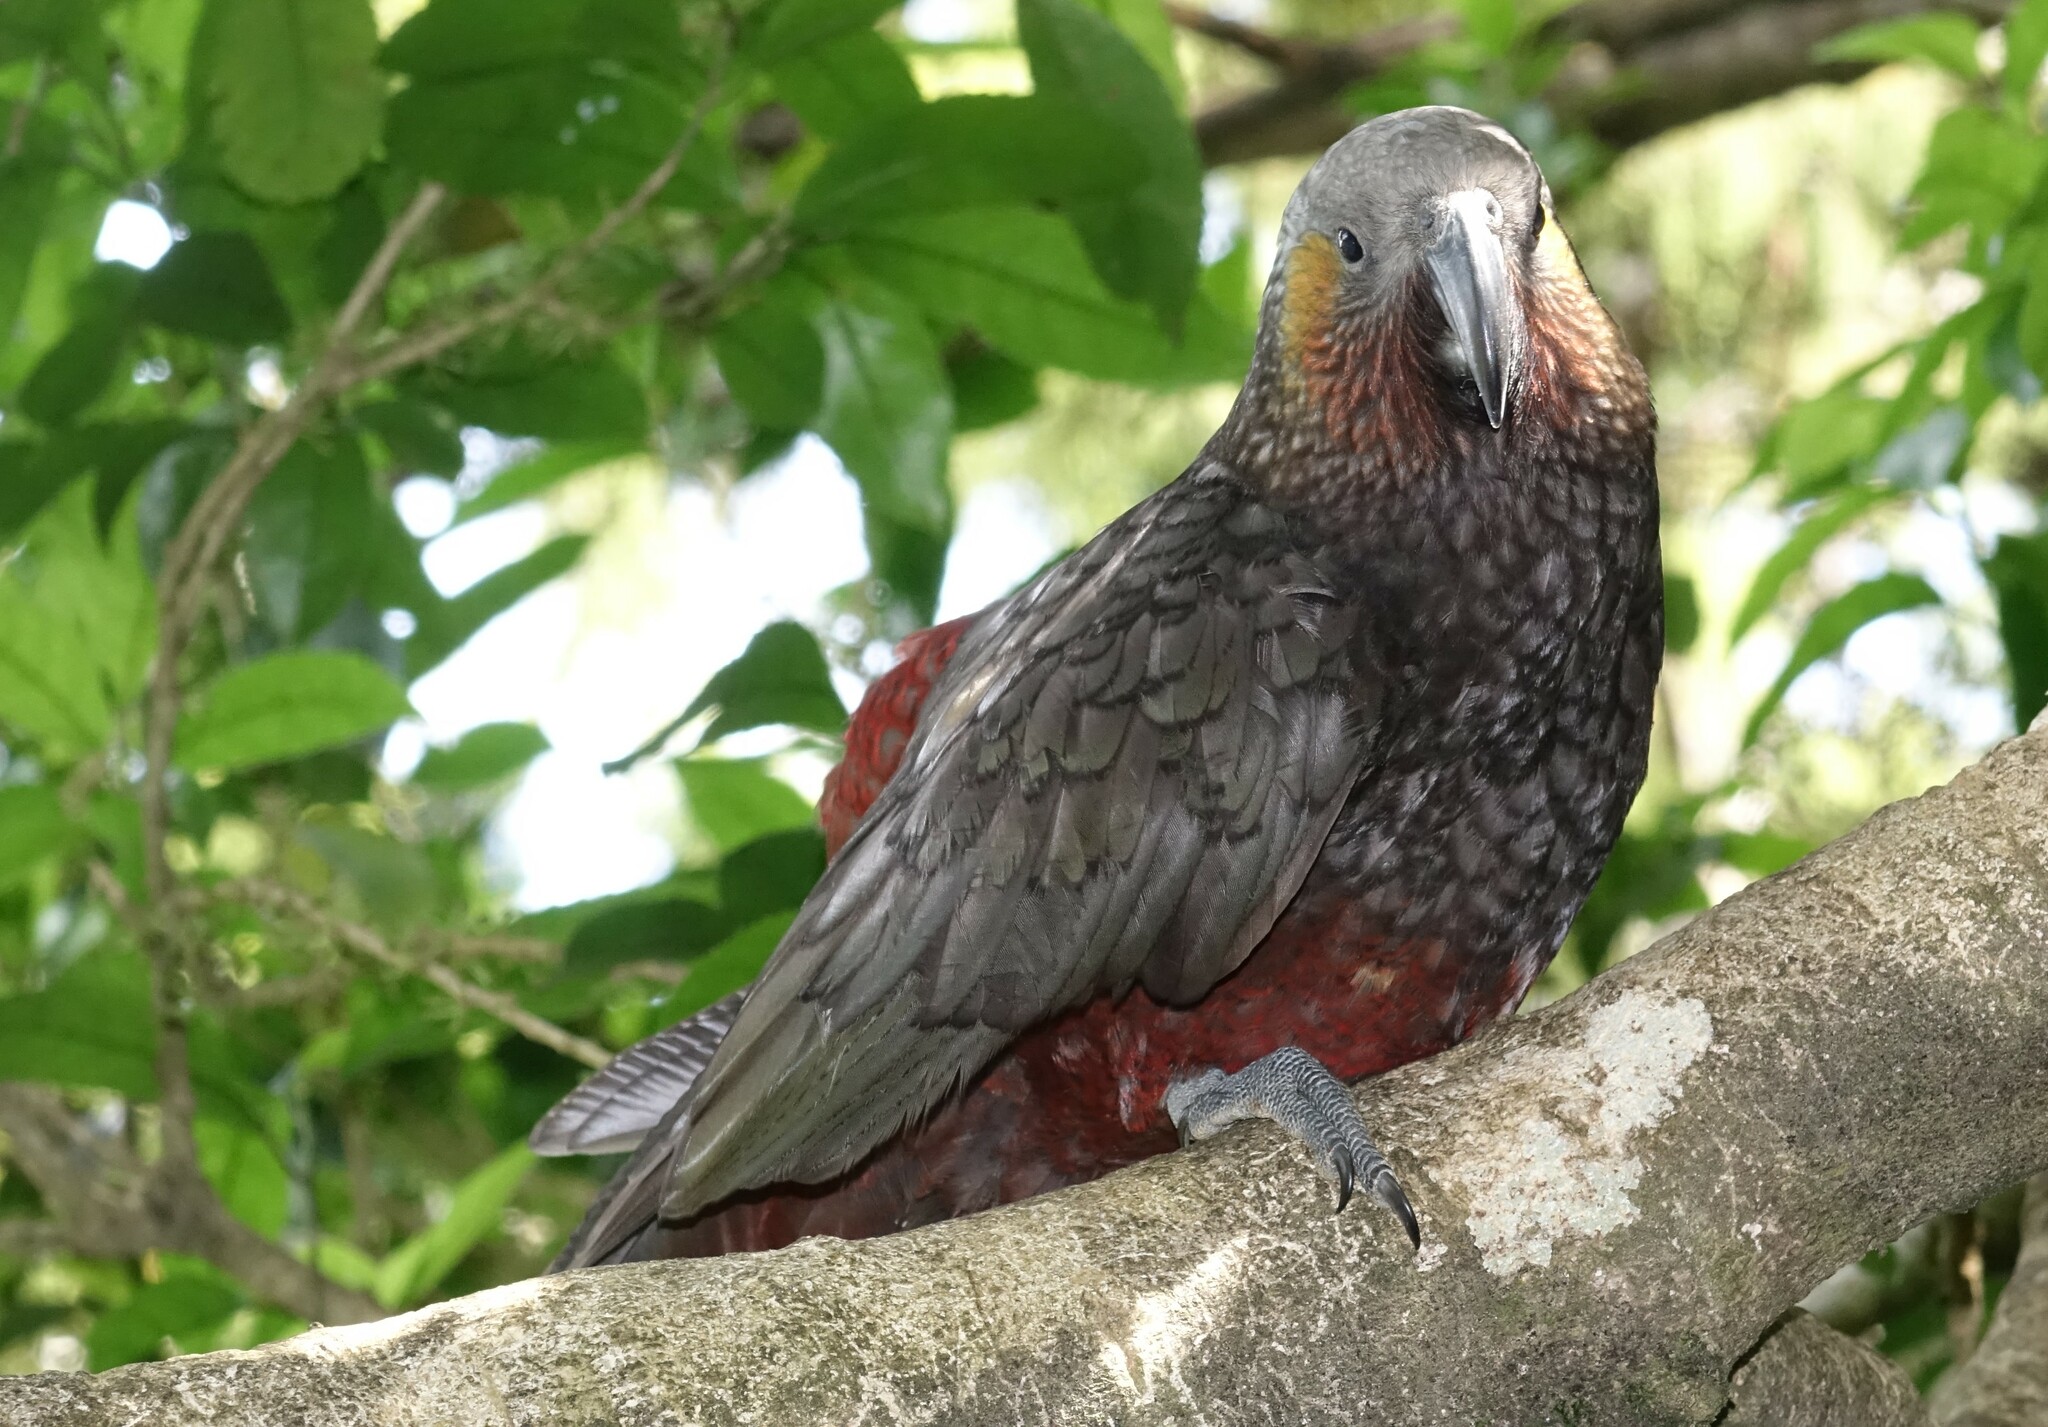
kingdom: Animalia
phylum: Chordata
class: Aves
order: Psittaciformes
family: Psittacidae
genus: Nestor
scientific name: Nestor meridionalis
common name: New zealand kaka
